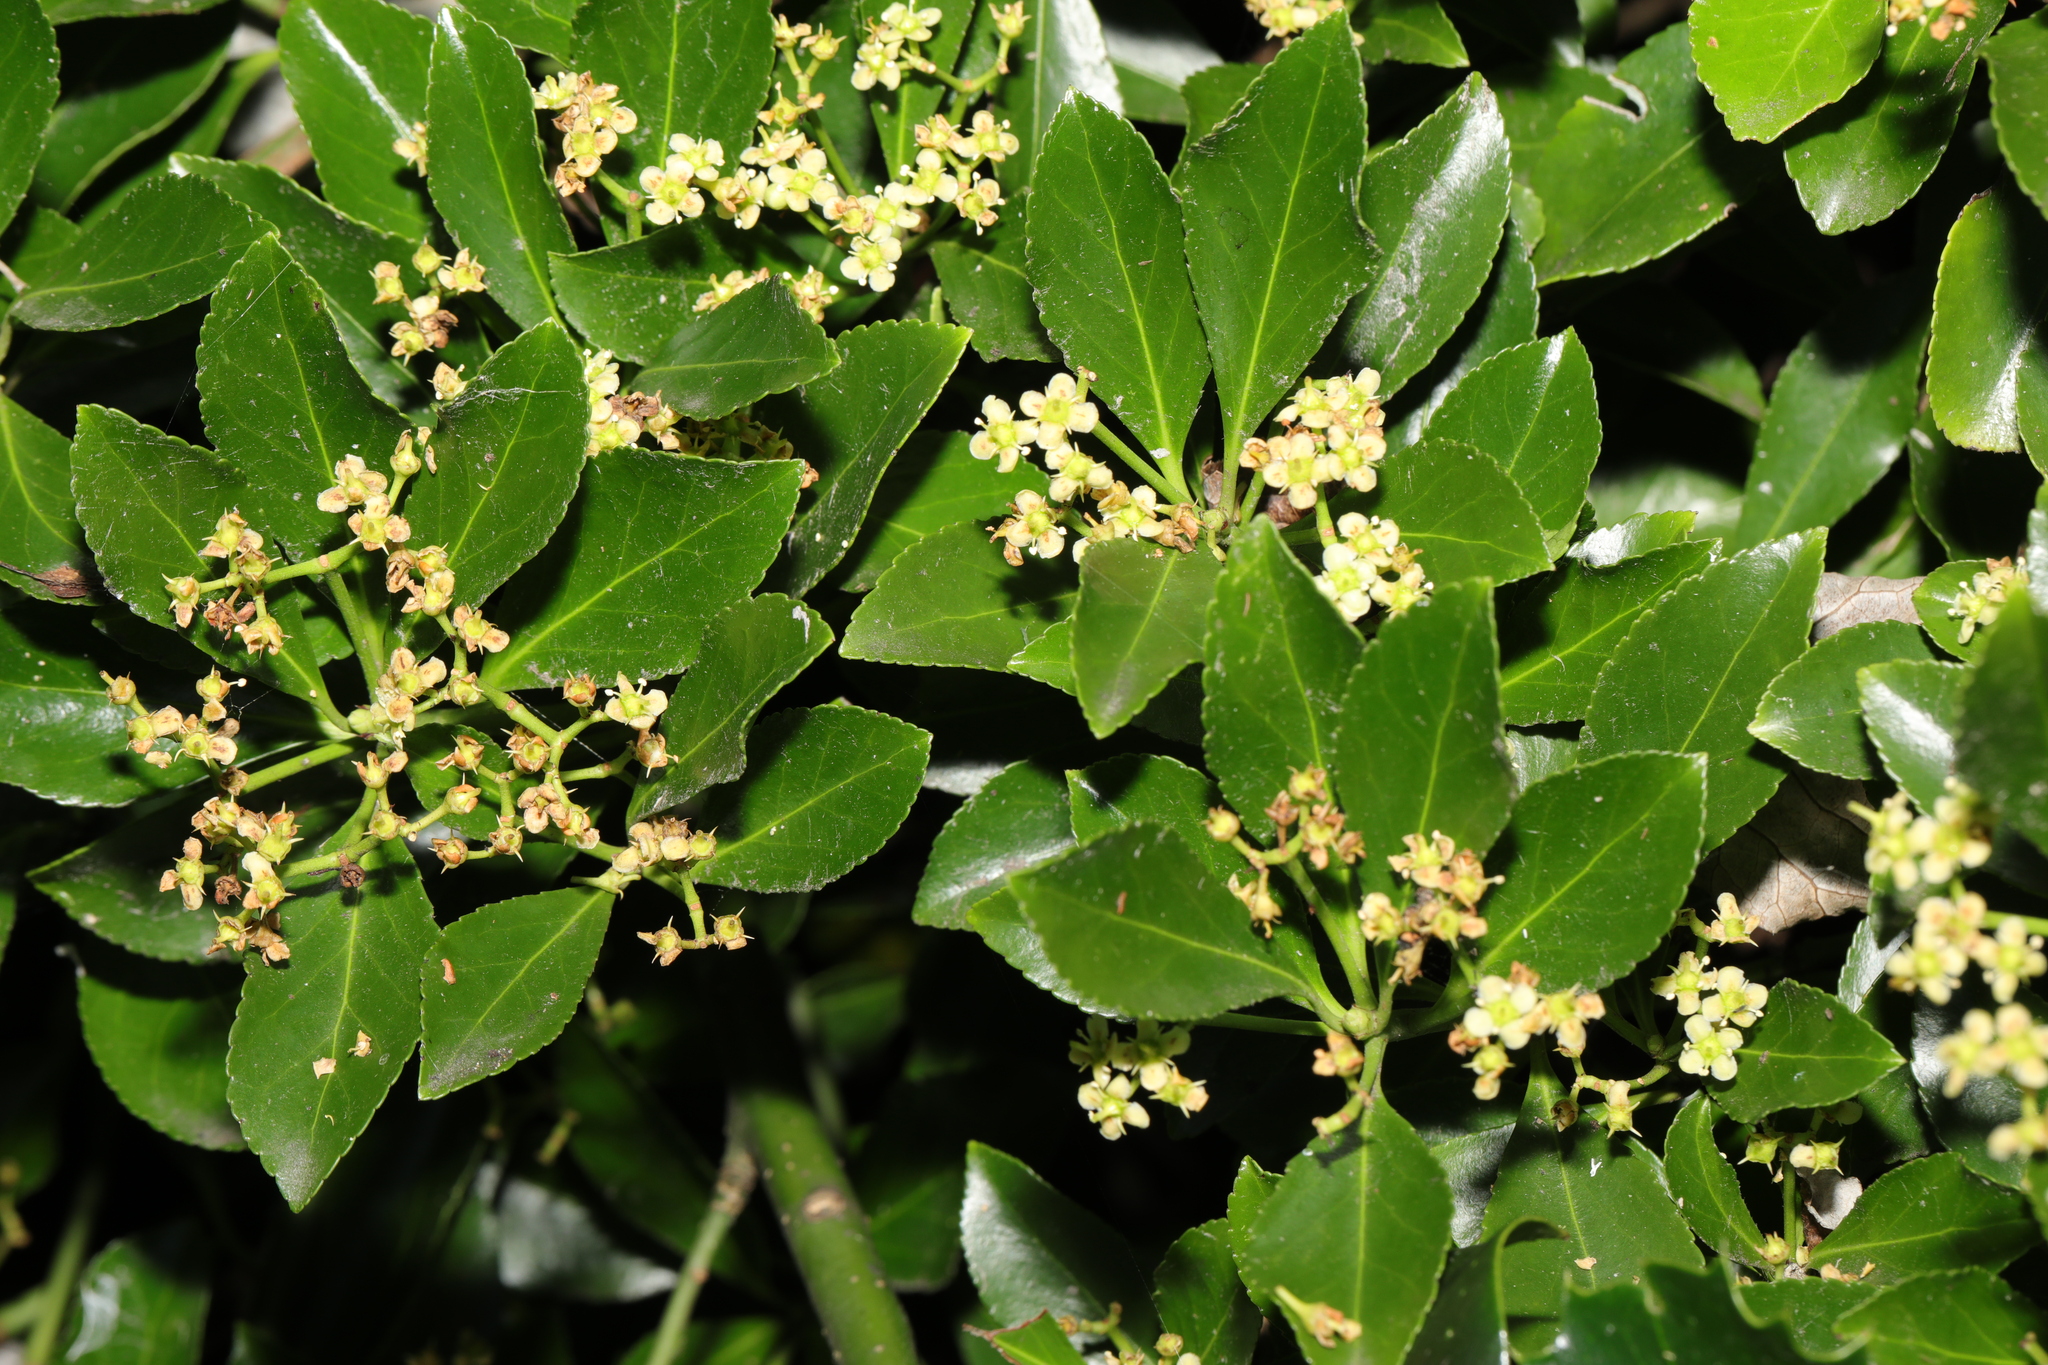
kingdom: Plantae
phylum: Tracheophyta
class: Magnoliopsida
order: Celastrales
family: Celastraceae
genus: Euonymus
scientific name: Euonymus japonicus
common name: Japanese spindletree
